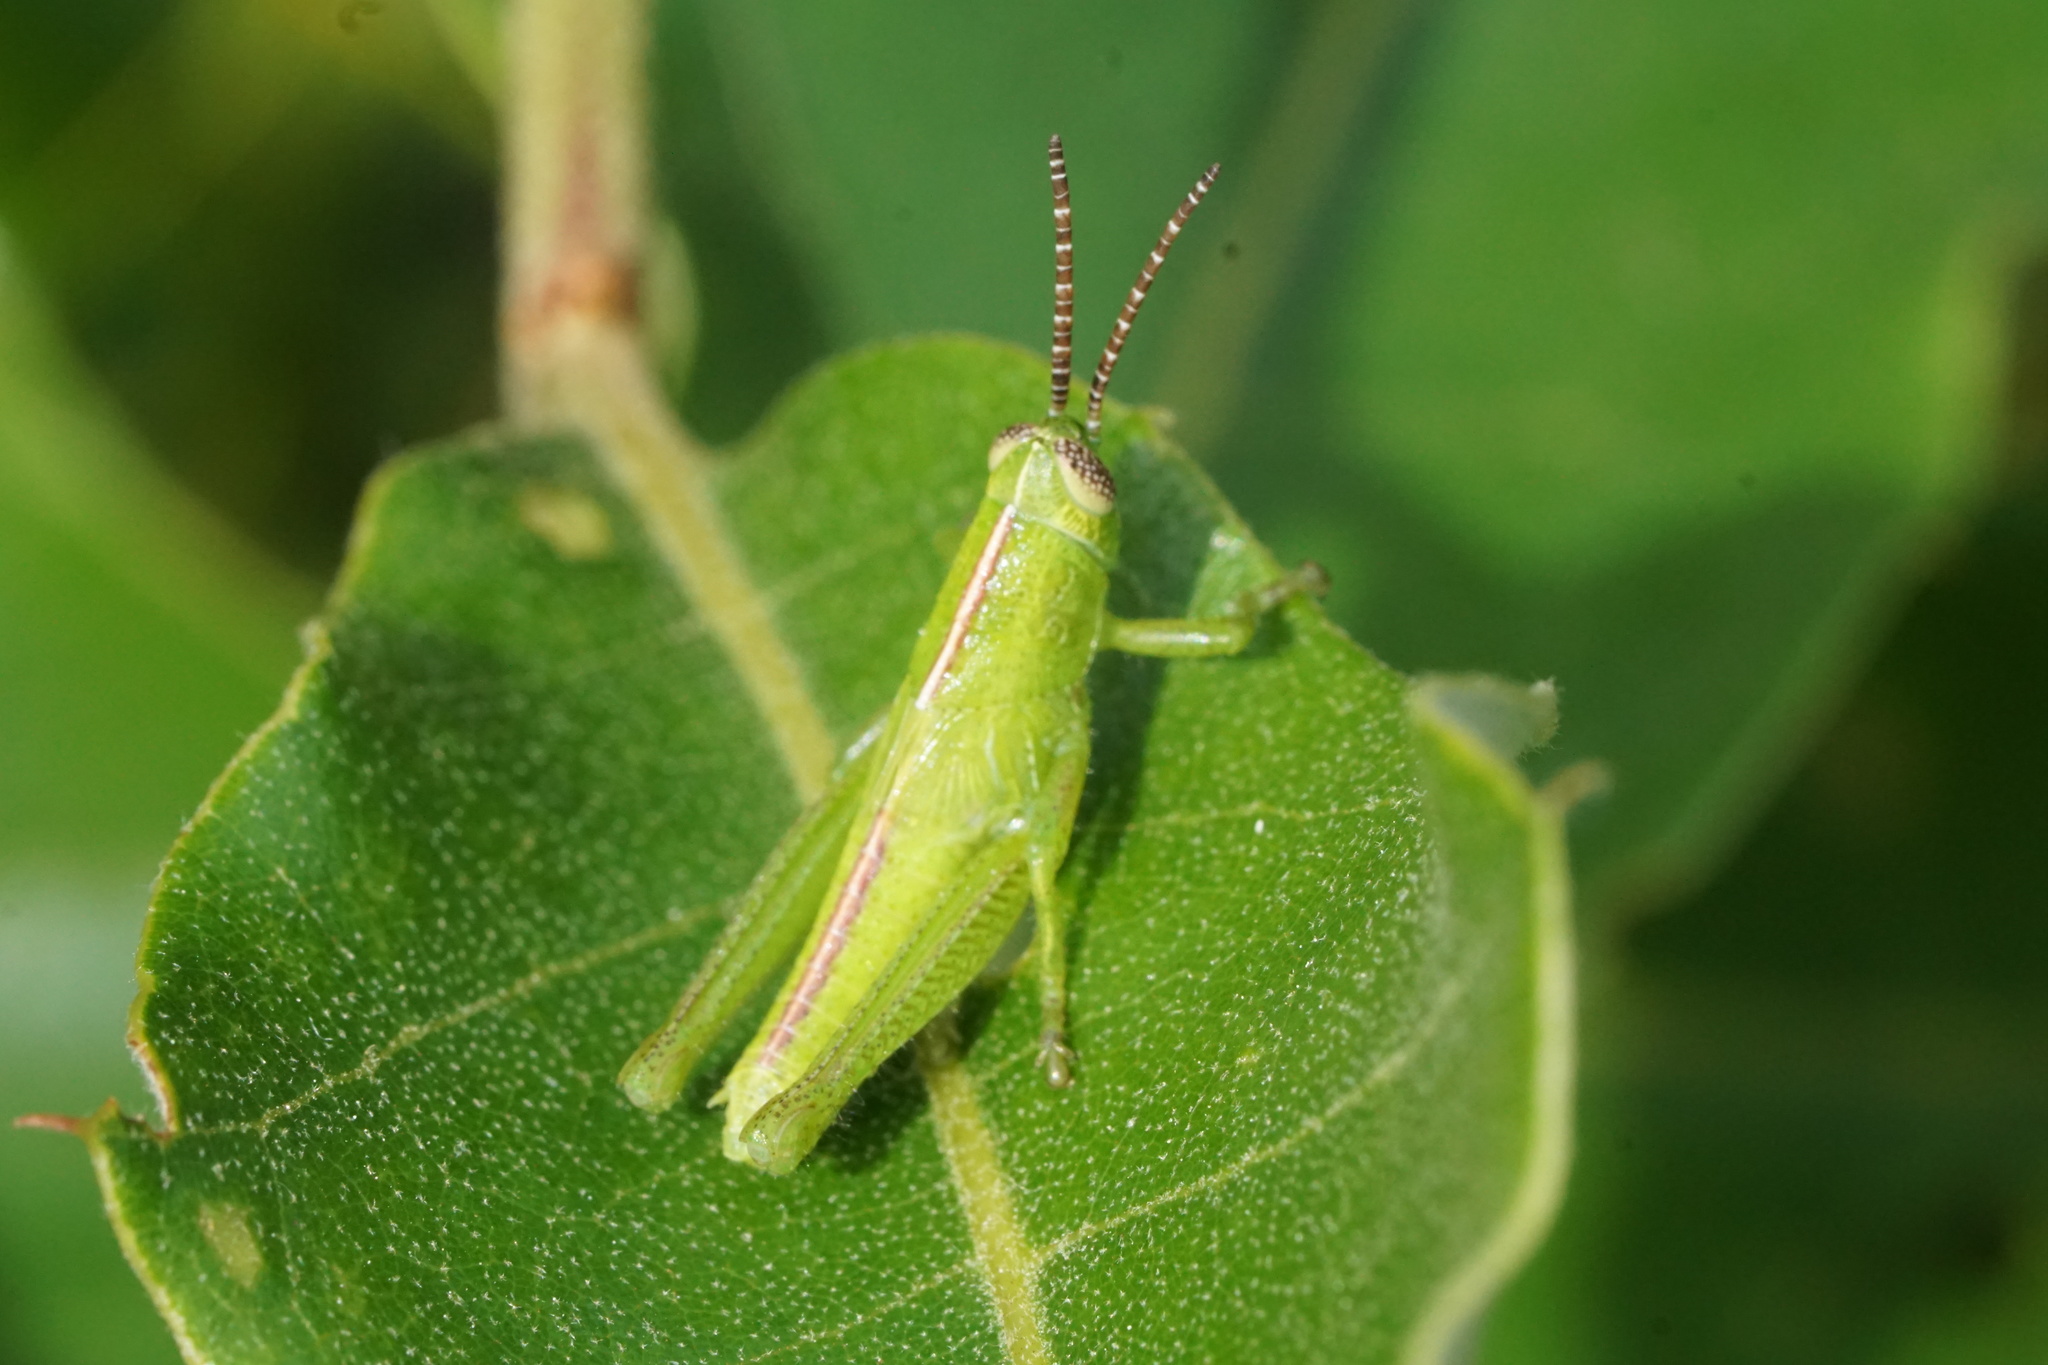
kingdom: Animalia
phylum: Arthropoda
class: Insecta
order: Orthoptera
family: Acrididae
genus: Hesperotettix
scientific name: Hesperotettix viridis
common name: Meadow purple-striped grasshopper
